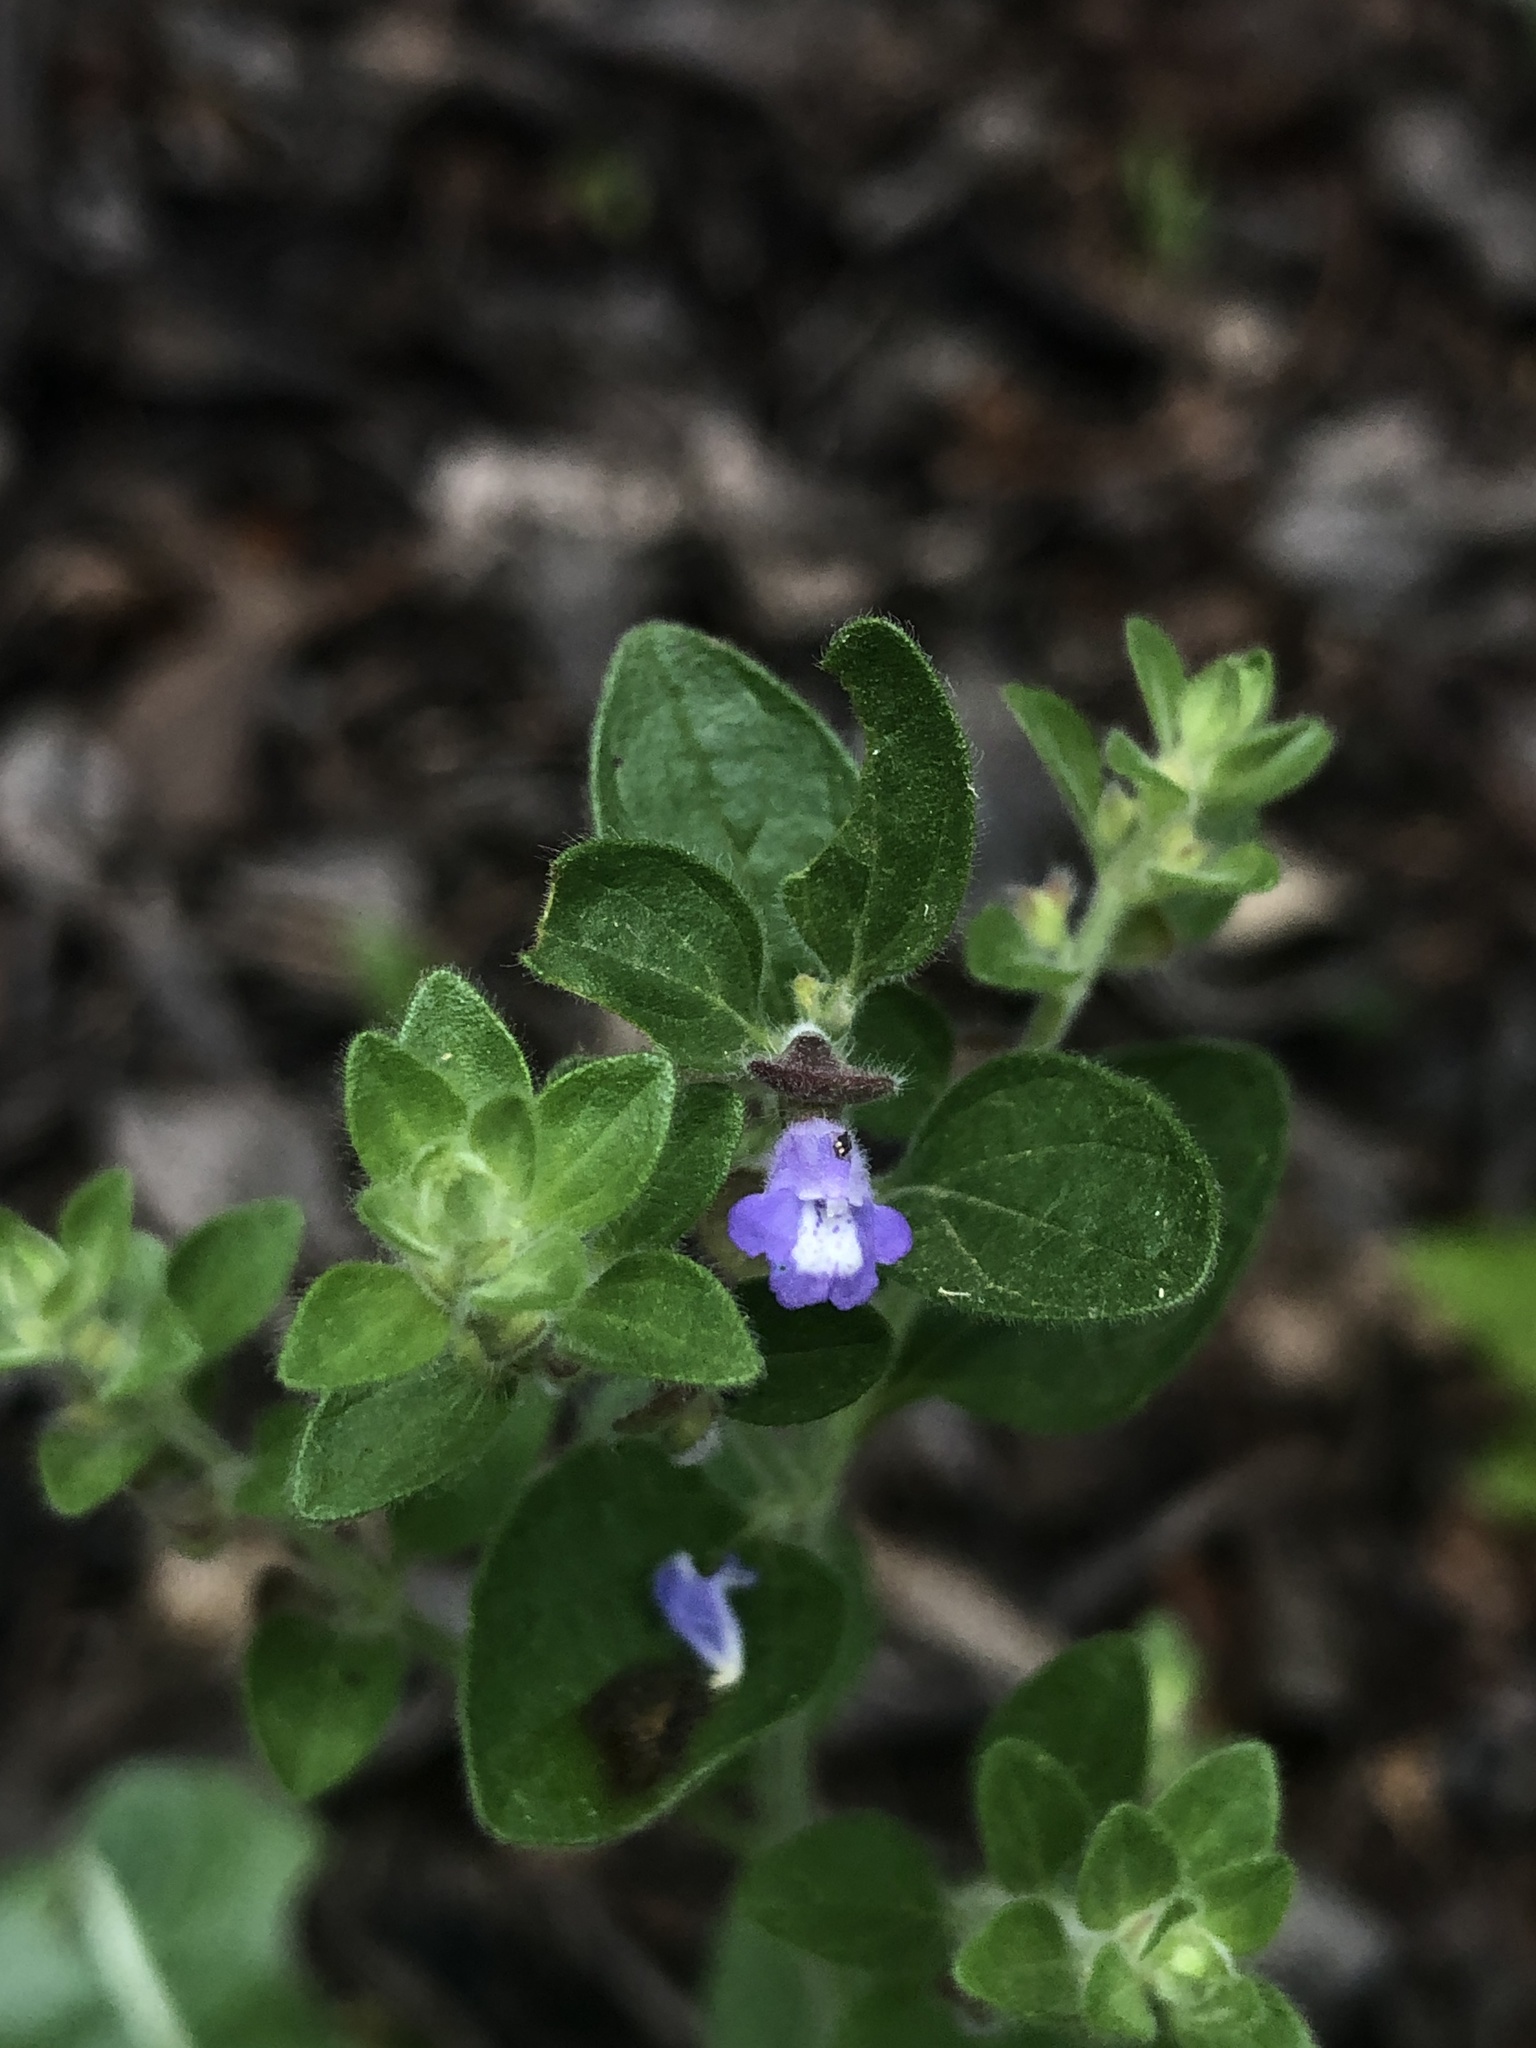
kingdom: Plantae
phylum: Tracheophyta
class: Magnoliopsida
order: Lamiales
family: Lamiaceae
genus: Scutellaria
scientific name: Scutellaria drummondii
